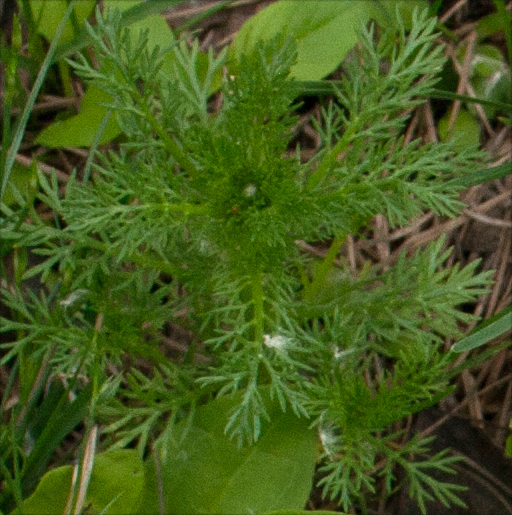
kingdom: Plantae
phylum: Tracheophyta
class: Magnoliopsida
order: Asterales
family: Asteraceae
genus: Matricaria
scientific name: Matricaria discoidea
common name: Disc mayweed
